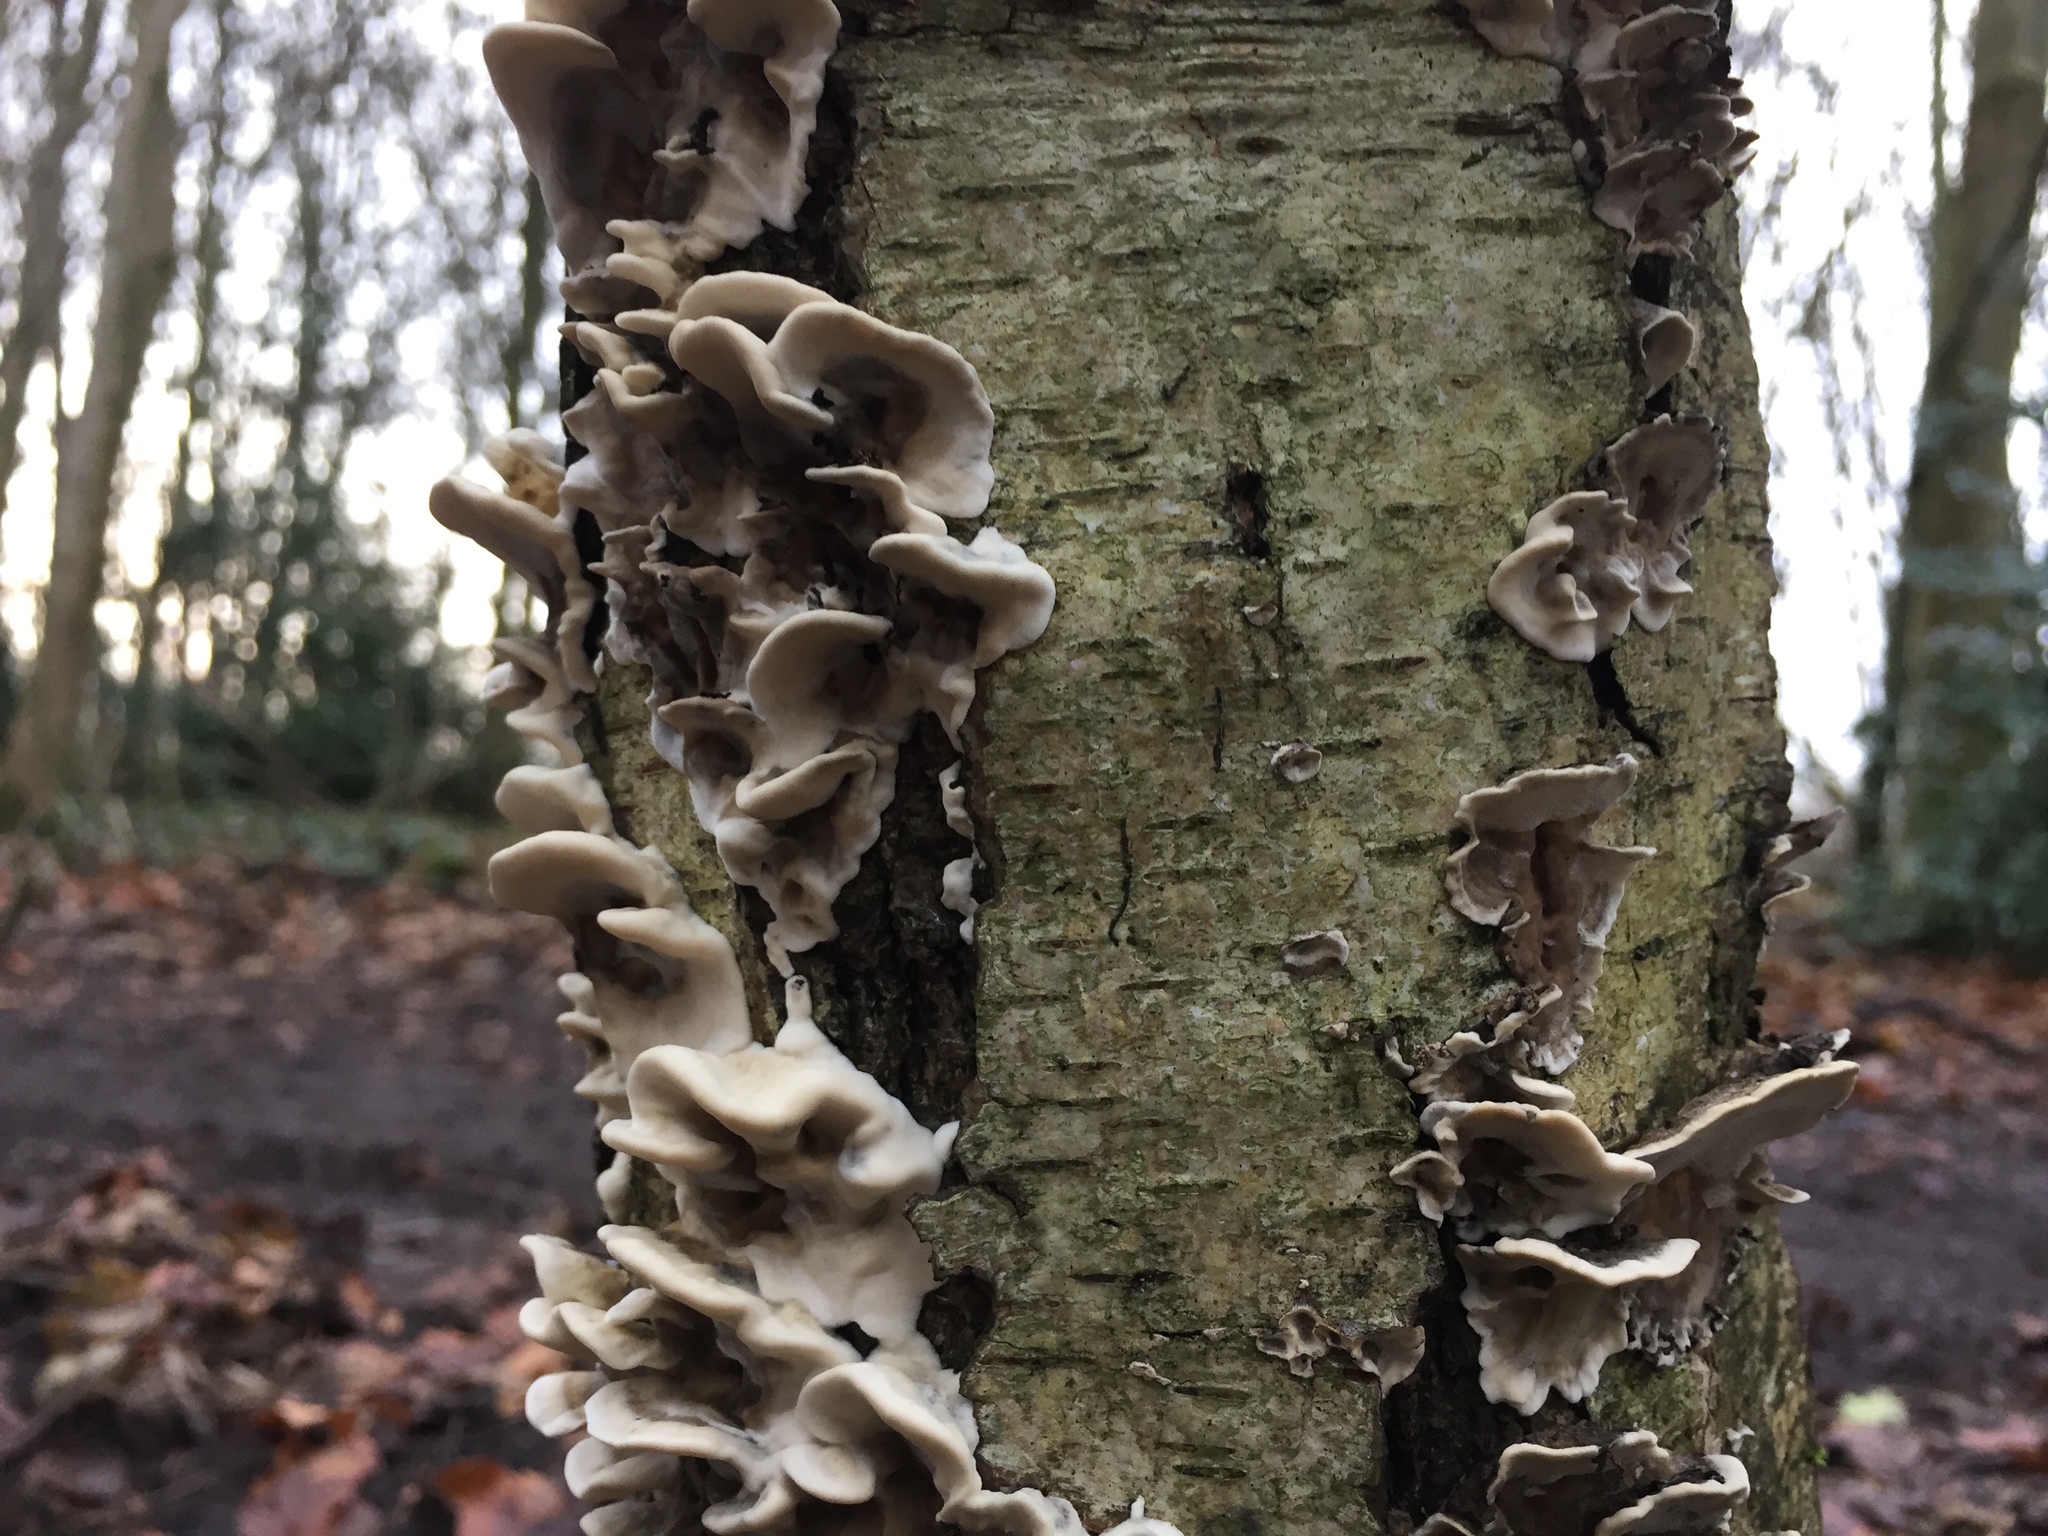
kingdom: Fungi
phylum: Basidiomycota
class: Agaricomycetes
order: Polyporales
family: Phanerochaetaceae
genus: Bjerkandera
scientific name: Bjerkandera adusta
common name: Smoky bracket
